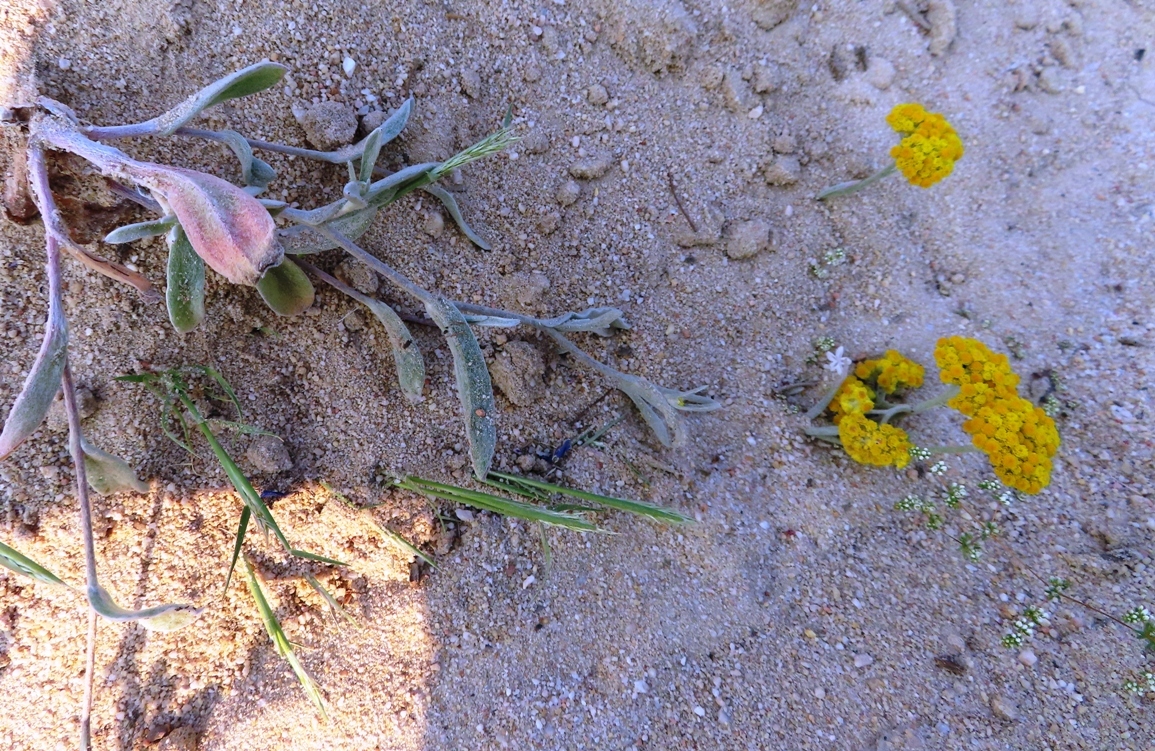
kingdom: Plantae
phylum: Tracheophyta
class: Magnoliopsida
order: Asterales
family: Asteraceae
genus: Helichrysum
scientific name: Helichrysum moeserianum
